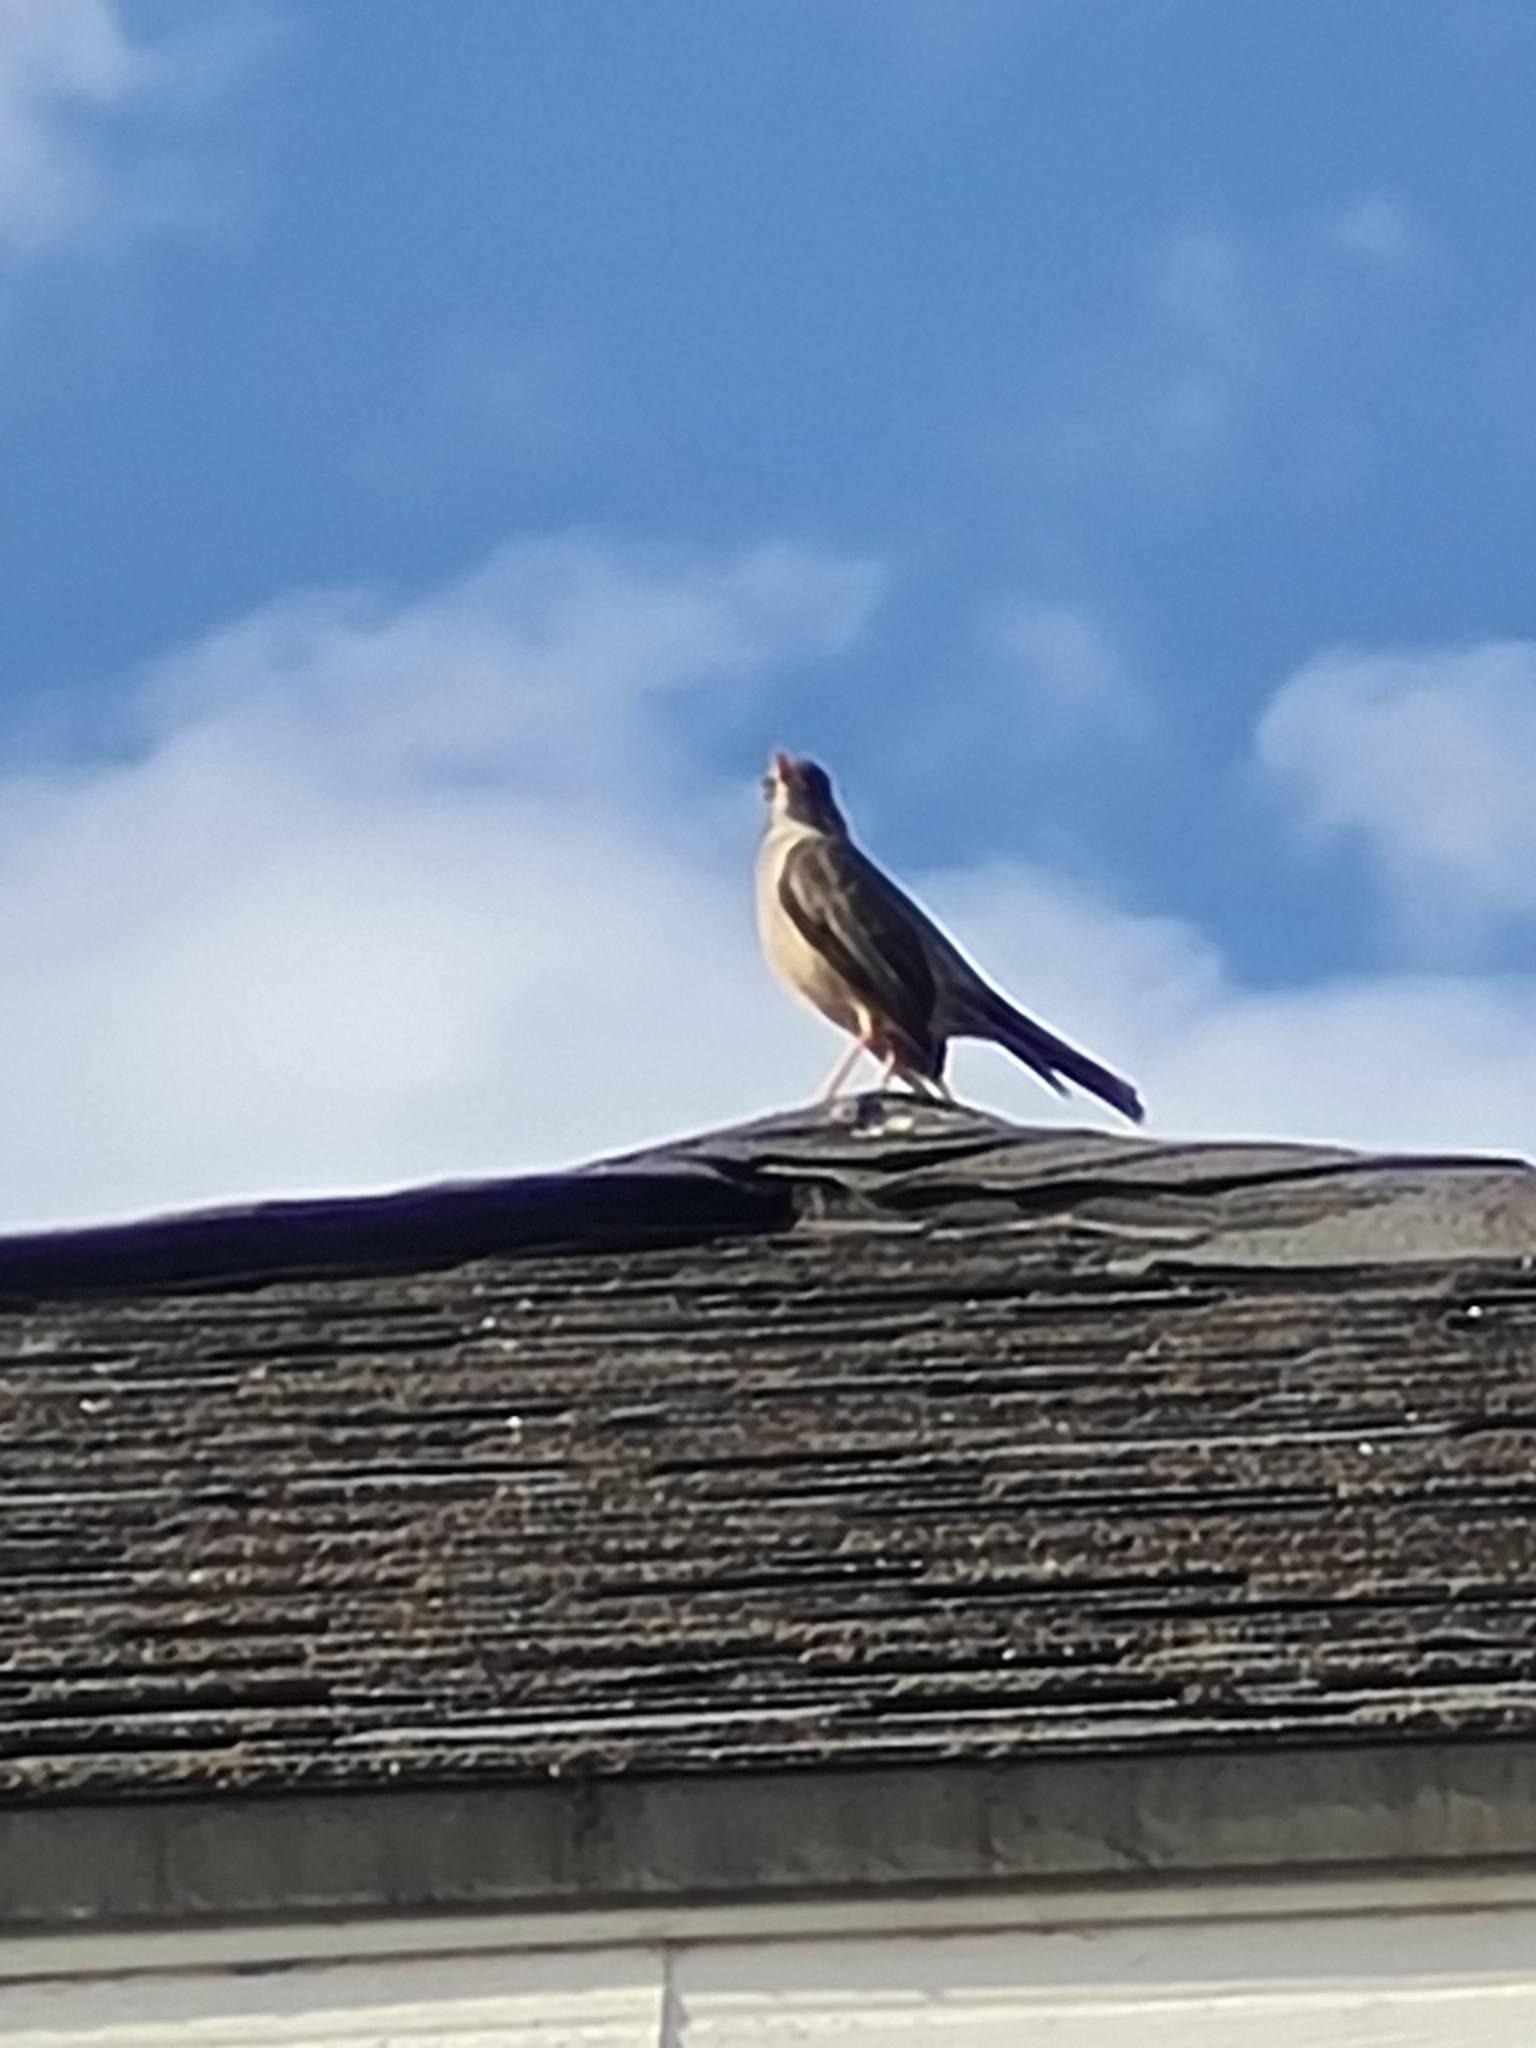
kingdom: Animalia
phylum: Chordata
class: Aves
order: Passeriformes
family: Turdidae
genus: Turdus
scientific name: Turdus falcklandii
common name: Austral thrush
